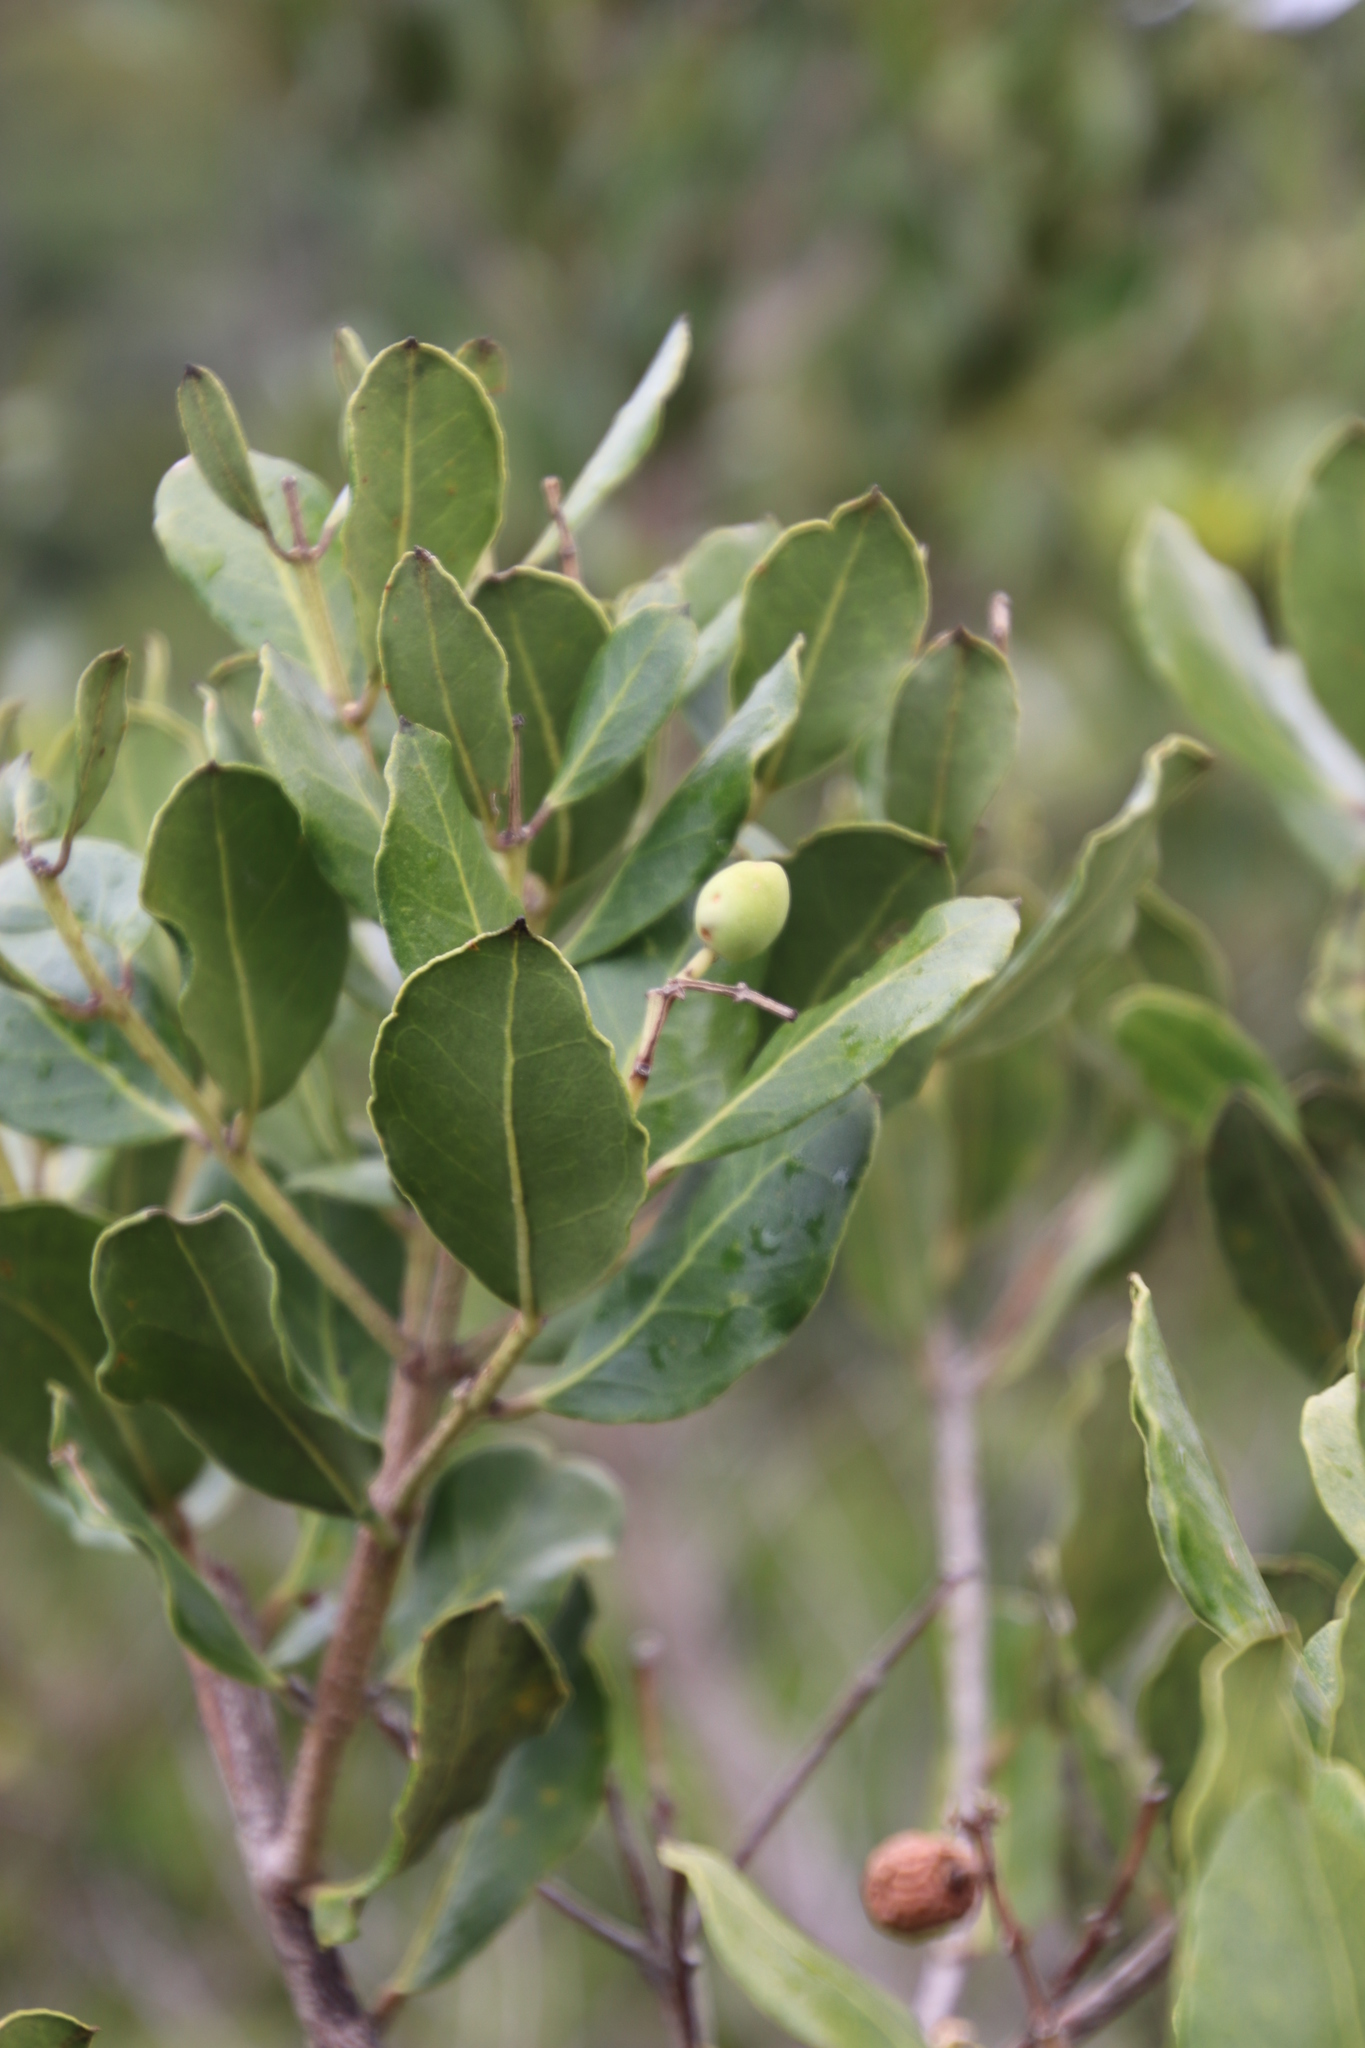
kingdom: Plantae
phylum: Tracheophyta
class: Magnoliopsida
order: Lamiales
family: Oleaceae
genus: Olea
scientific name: Olea capensis
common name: Black ironwood
